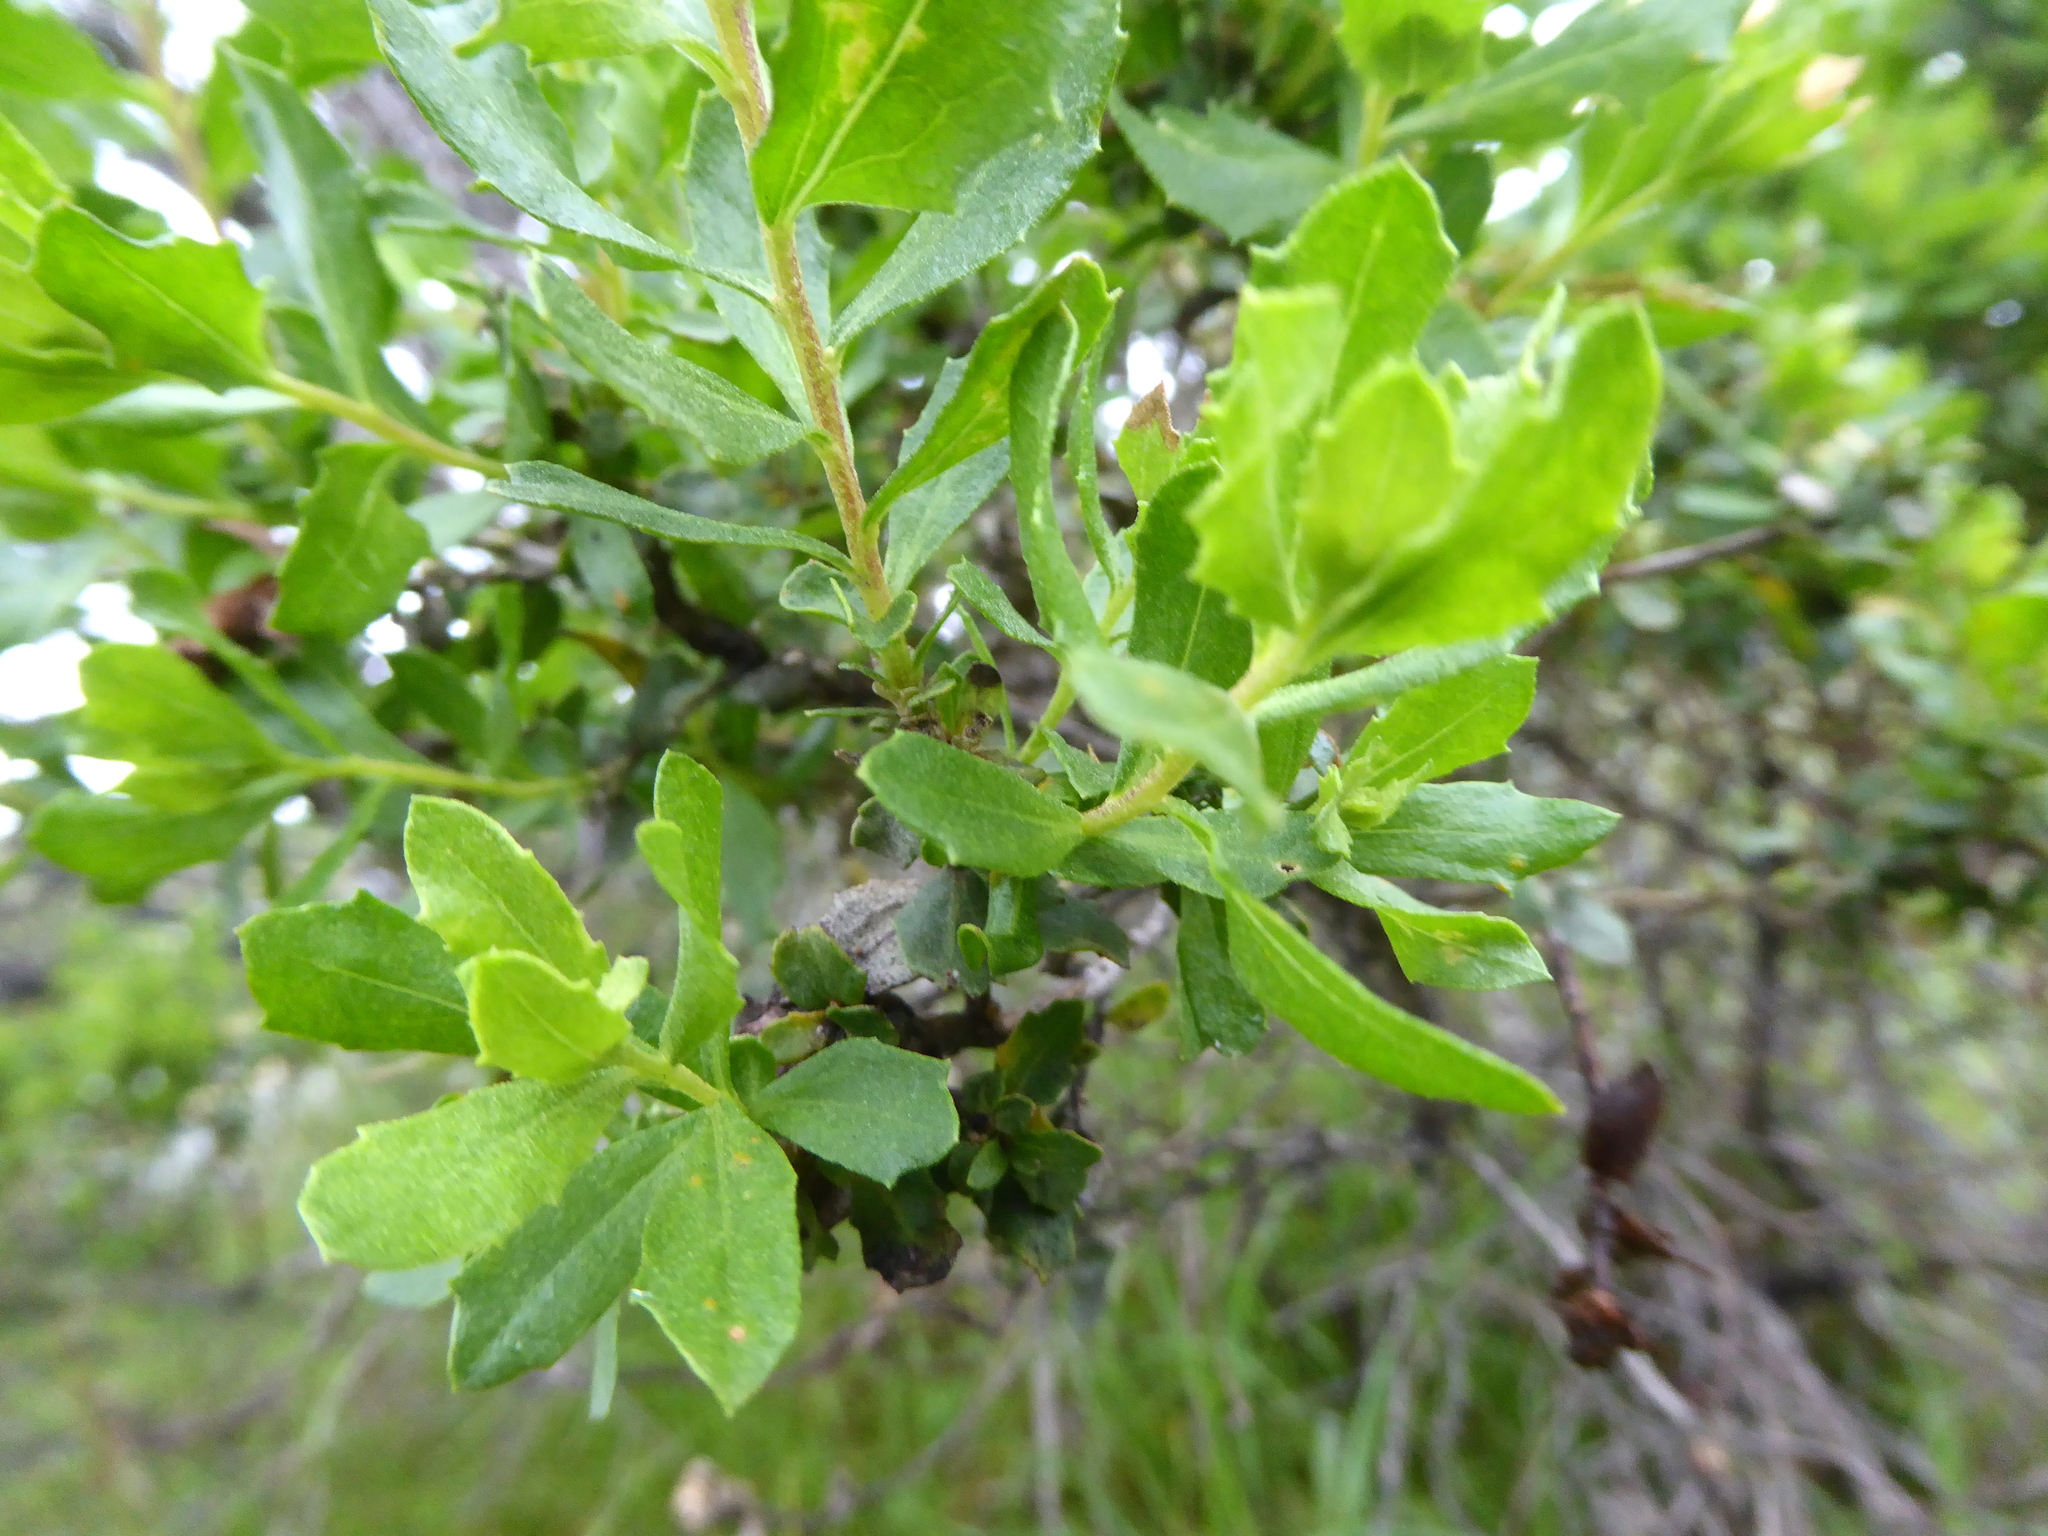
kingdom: Plantae
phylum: Tracheophyta
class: Magnoliopsida
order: Asterales
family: Asteraceae
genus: Baccharis
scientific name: Baccharis pilularis
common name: Coyotebrush
